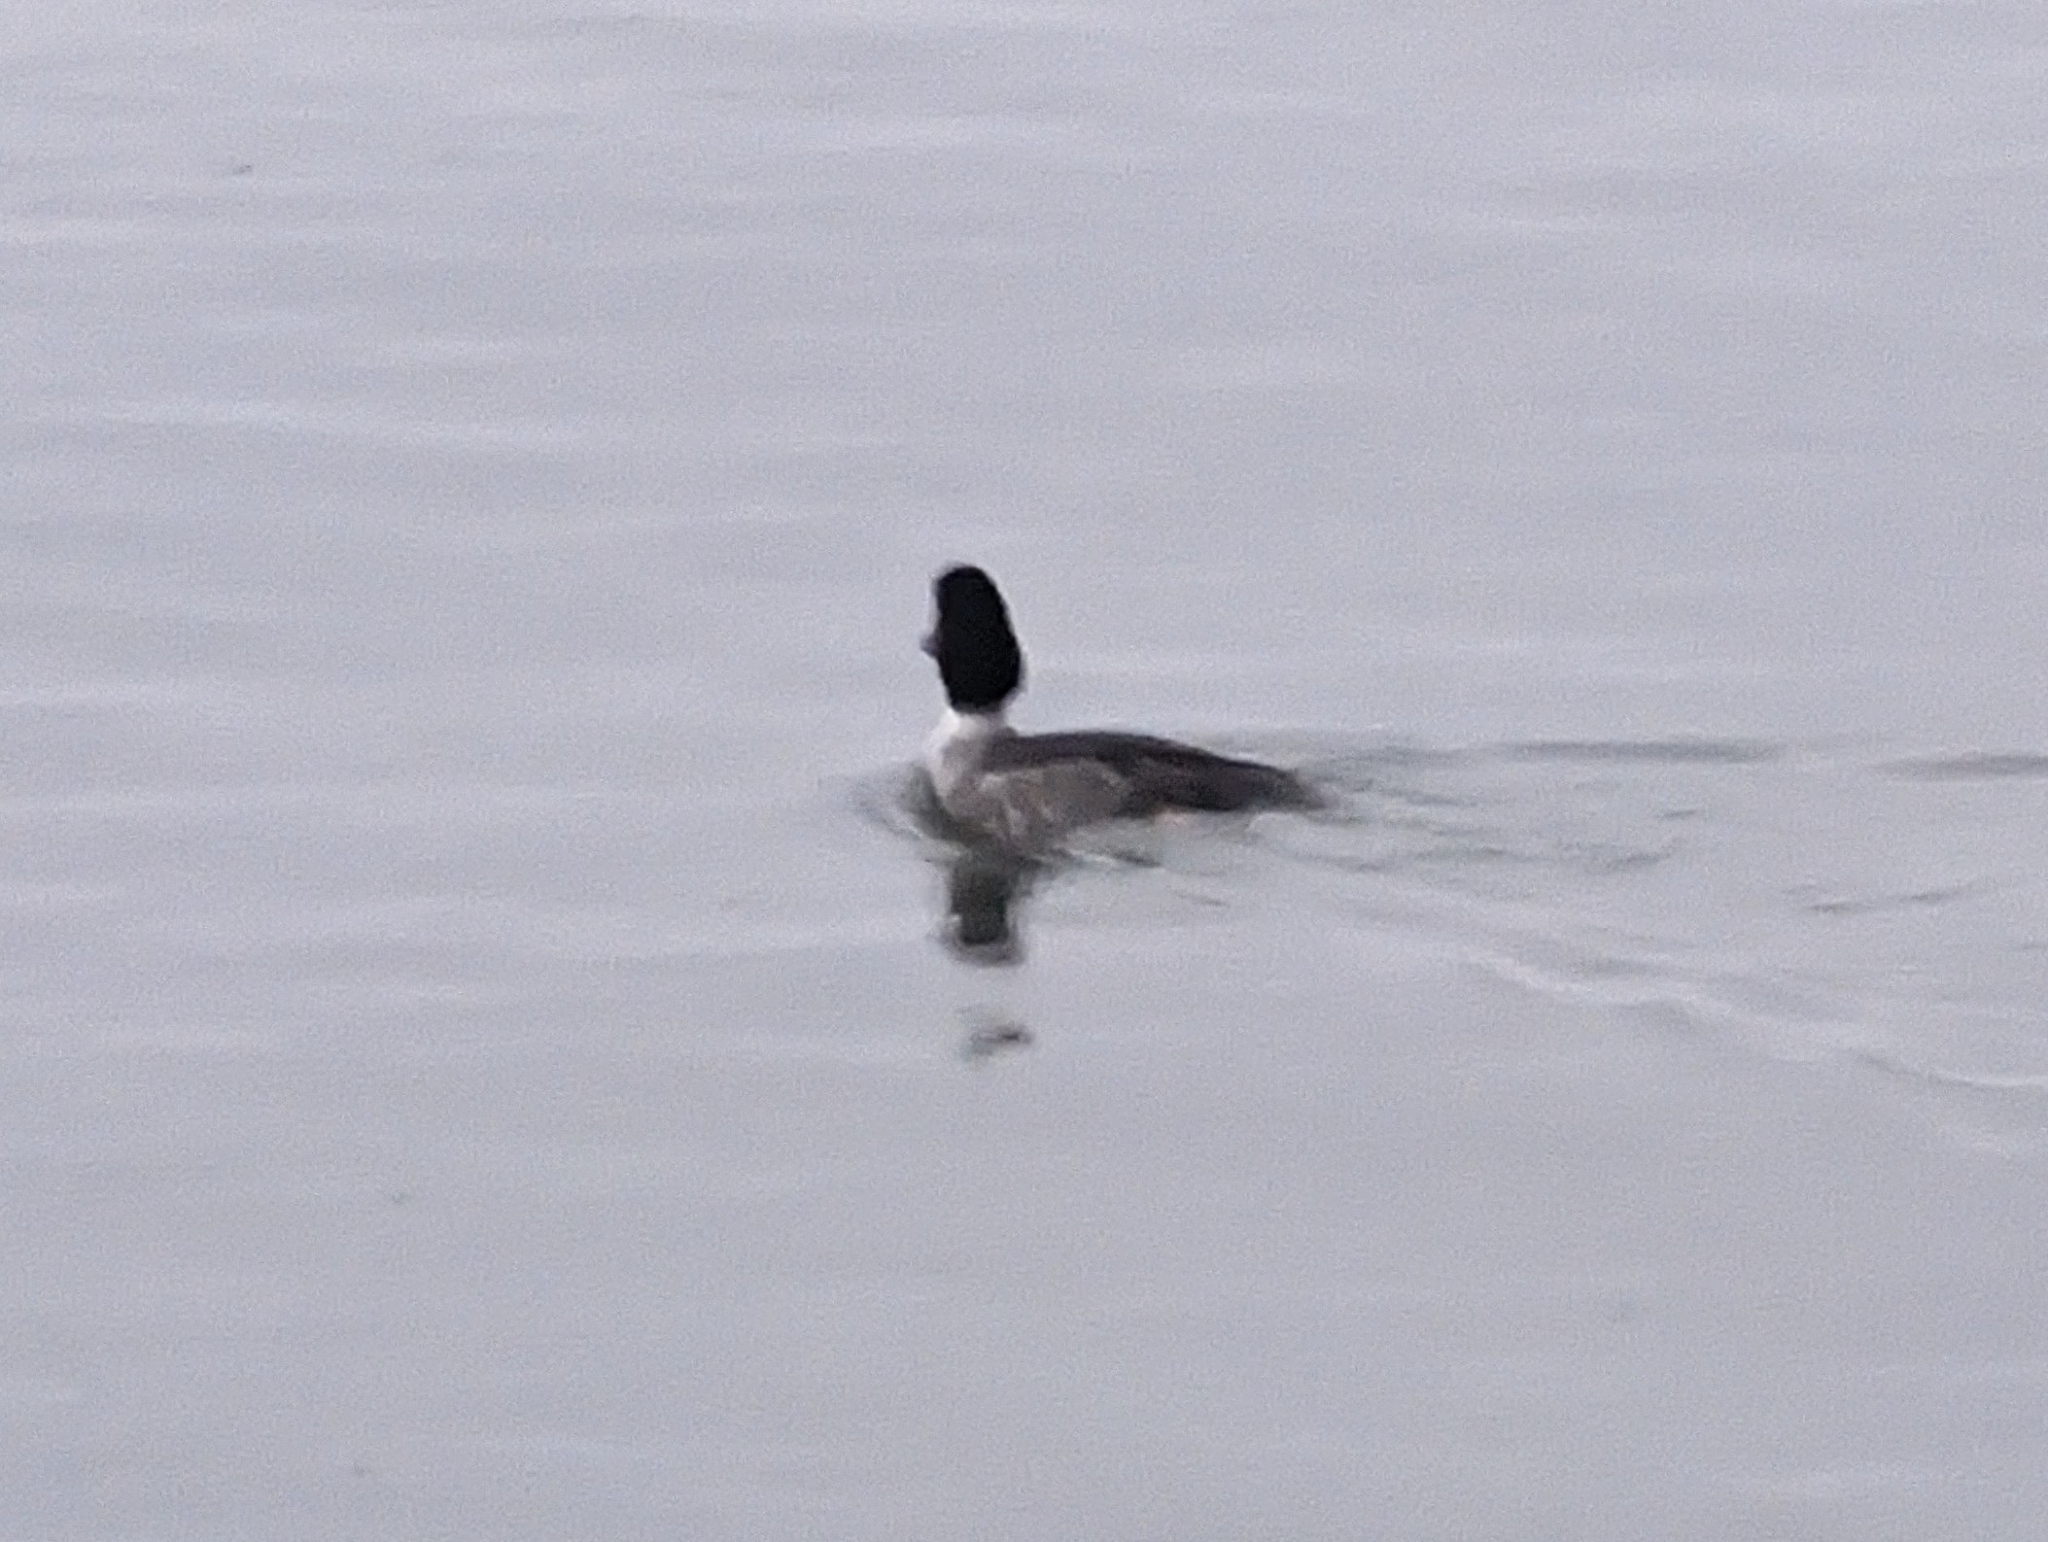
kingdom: Animalia
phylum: Chordata
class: Aves
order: Anseriformes
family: Anatidae
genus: Bucephala
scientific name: Bucephala clangula
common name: Common goldeneye
